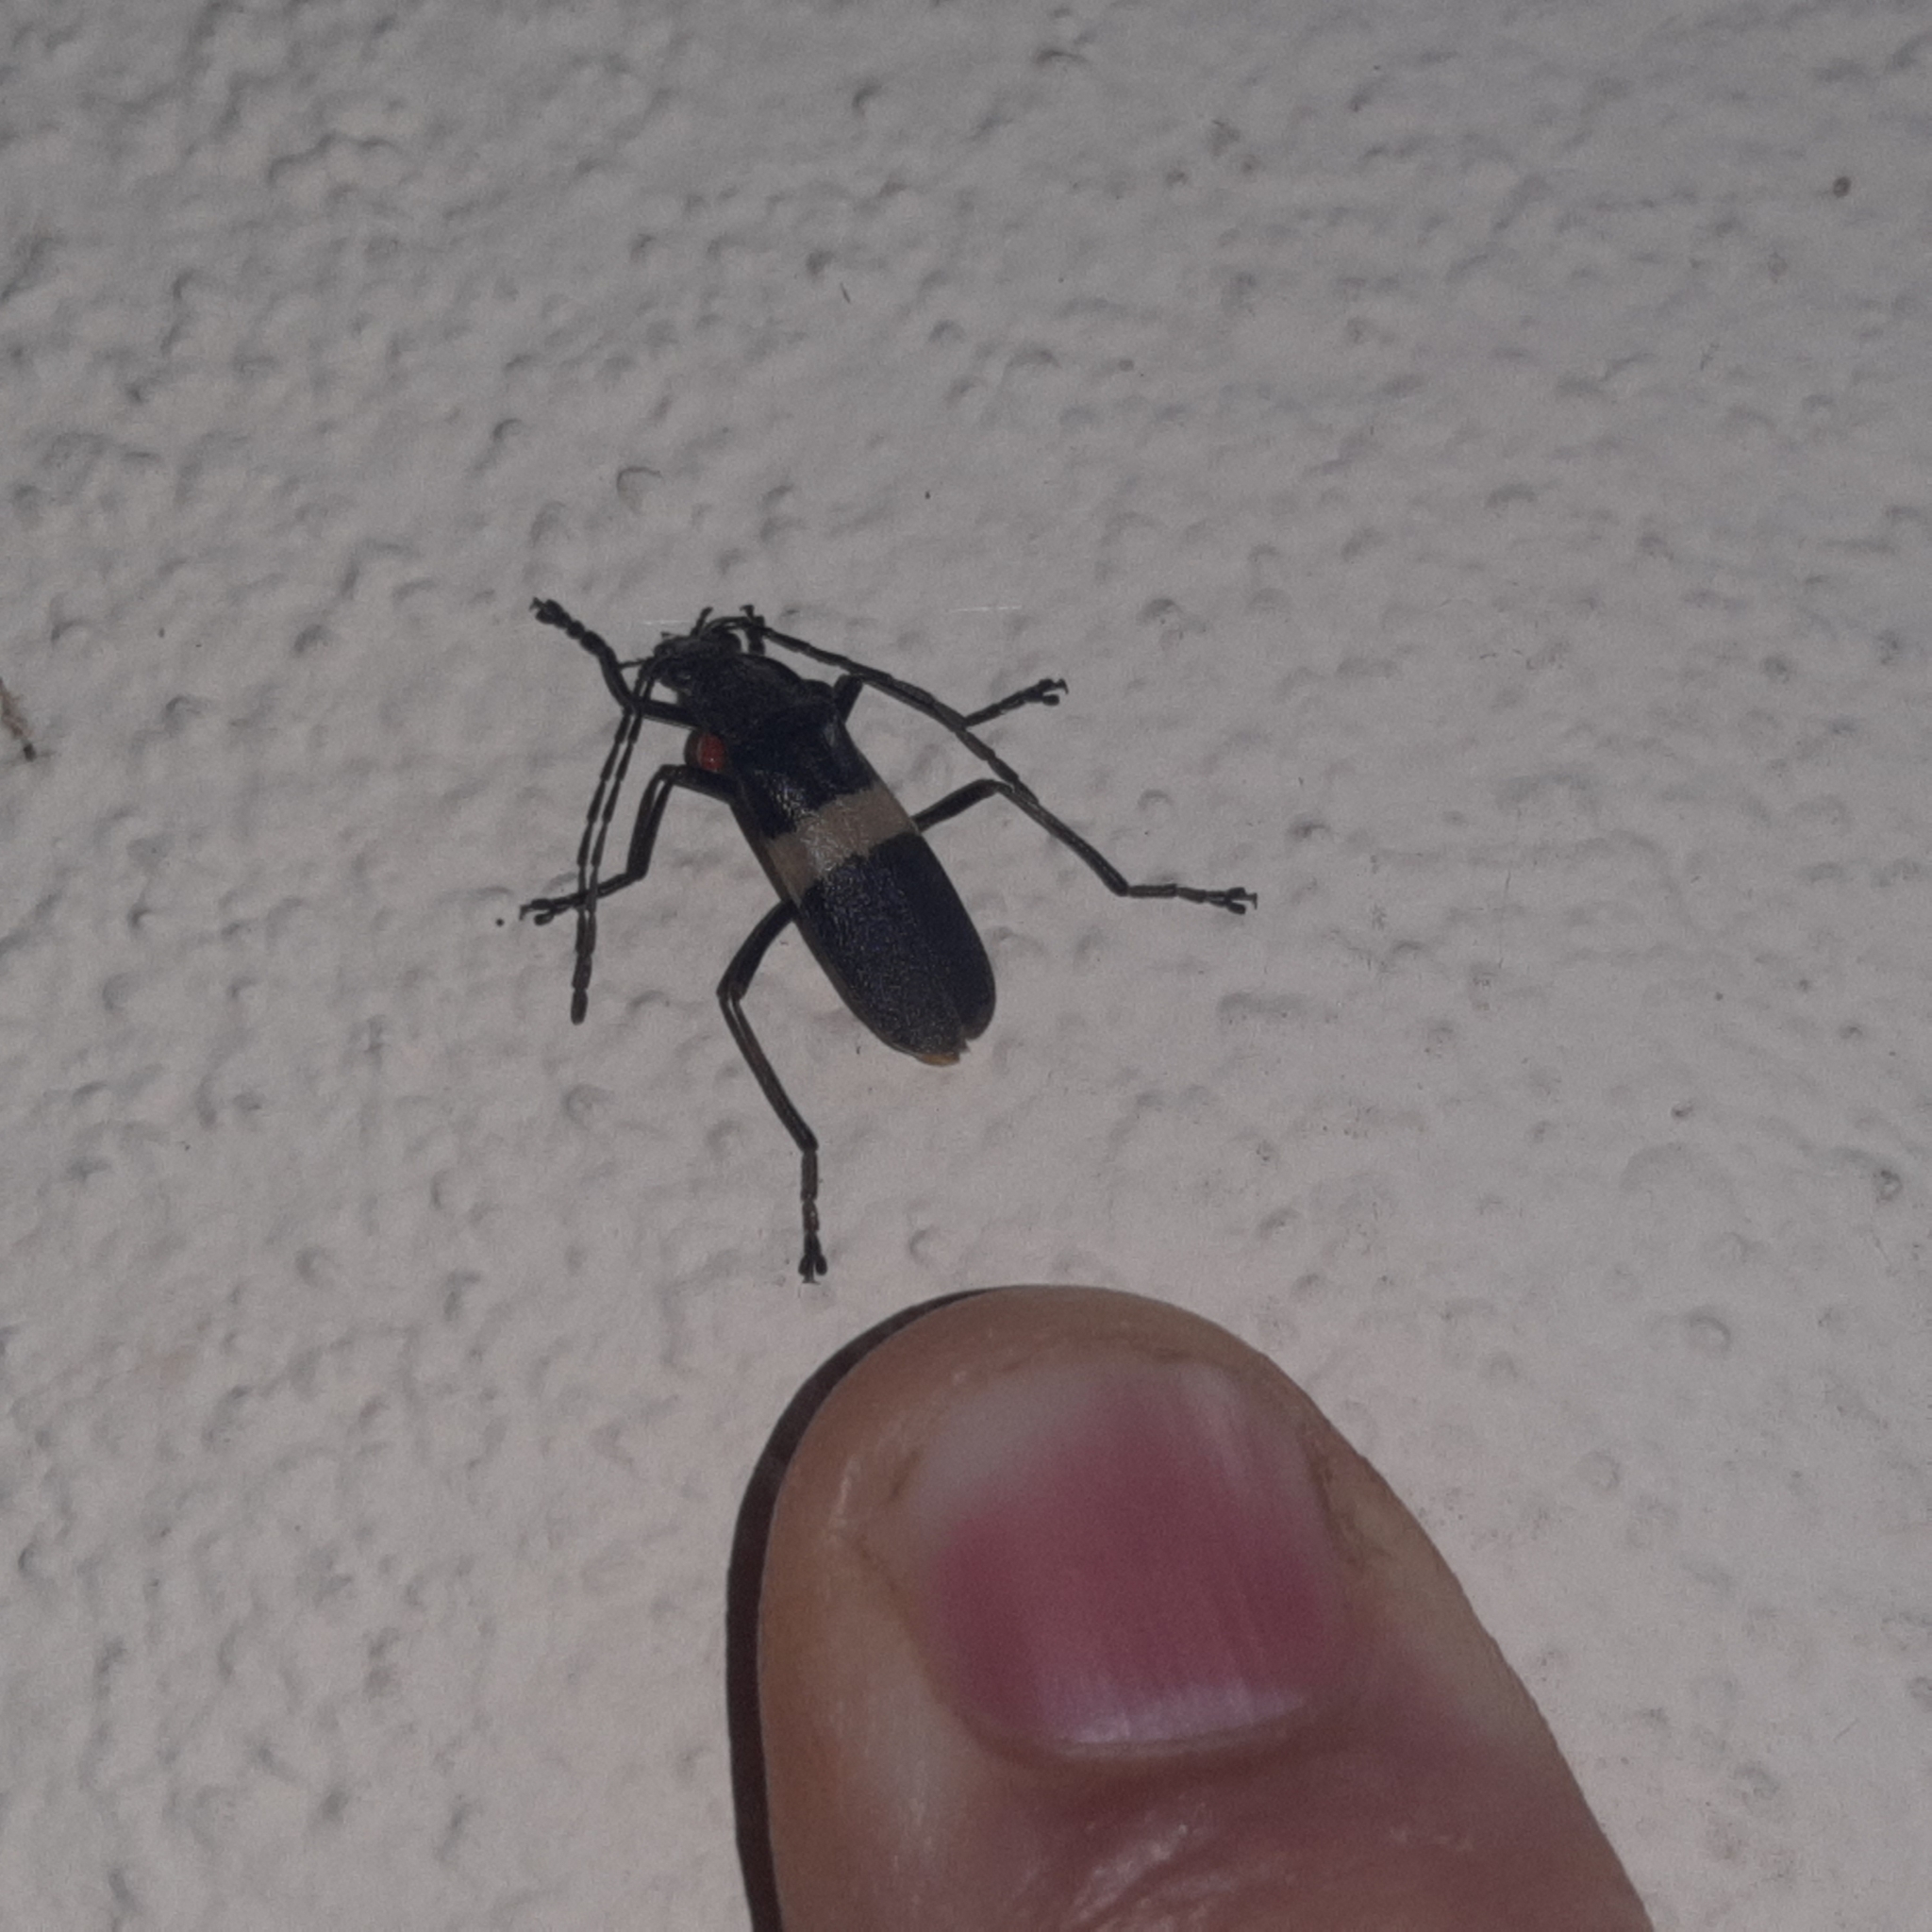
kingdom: Animalia
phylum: Arthropoda
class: Insecta
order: Coleoptera
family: Cantharidae
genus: Chauliognathus
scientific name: Chauliognathus
